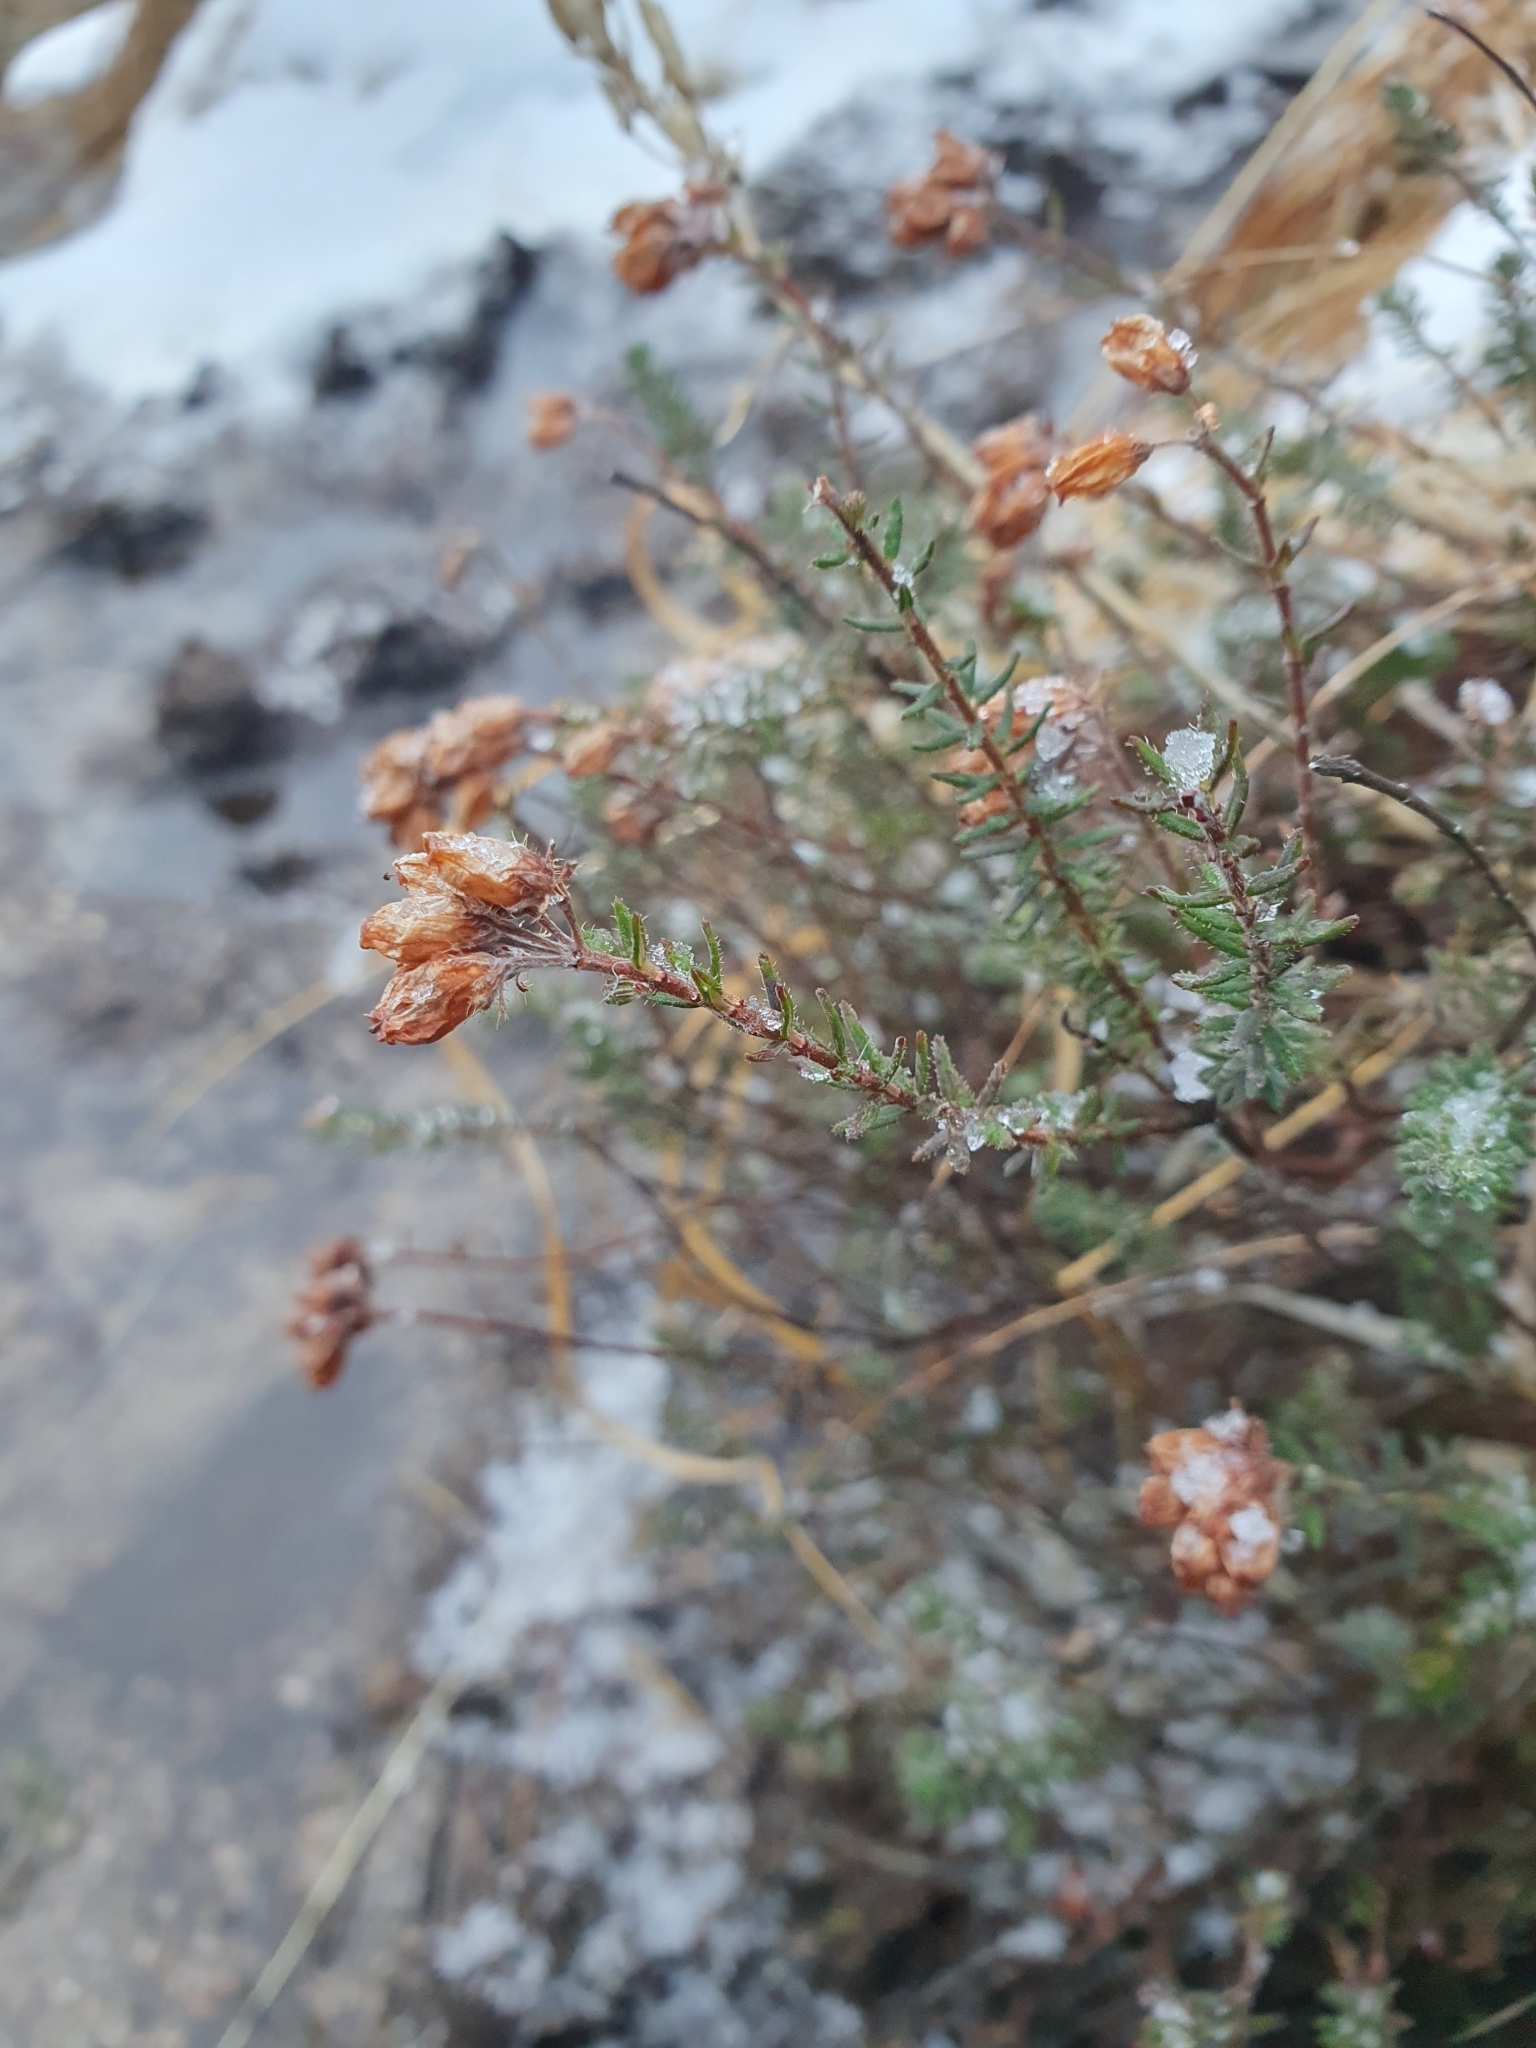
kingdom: Plantae
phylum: Tracheophyta
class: Magnoliopsida
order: Ericales
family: Ericaceae
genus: Erica
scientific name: Erica tetralix
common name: Cross-leaved heath
